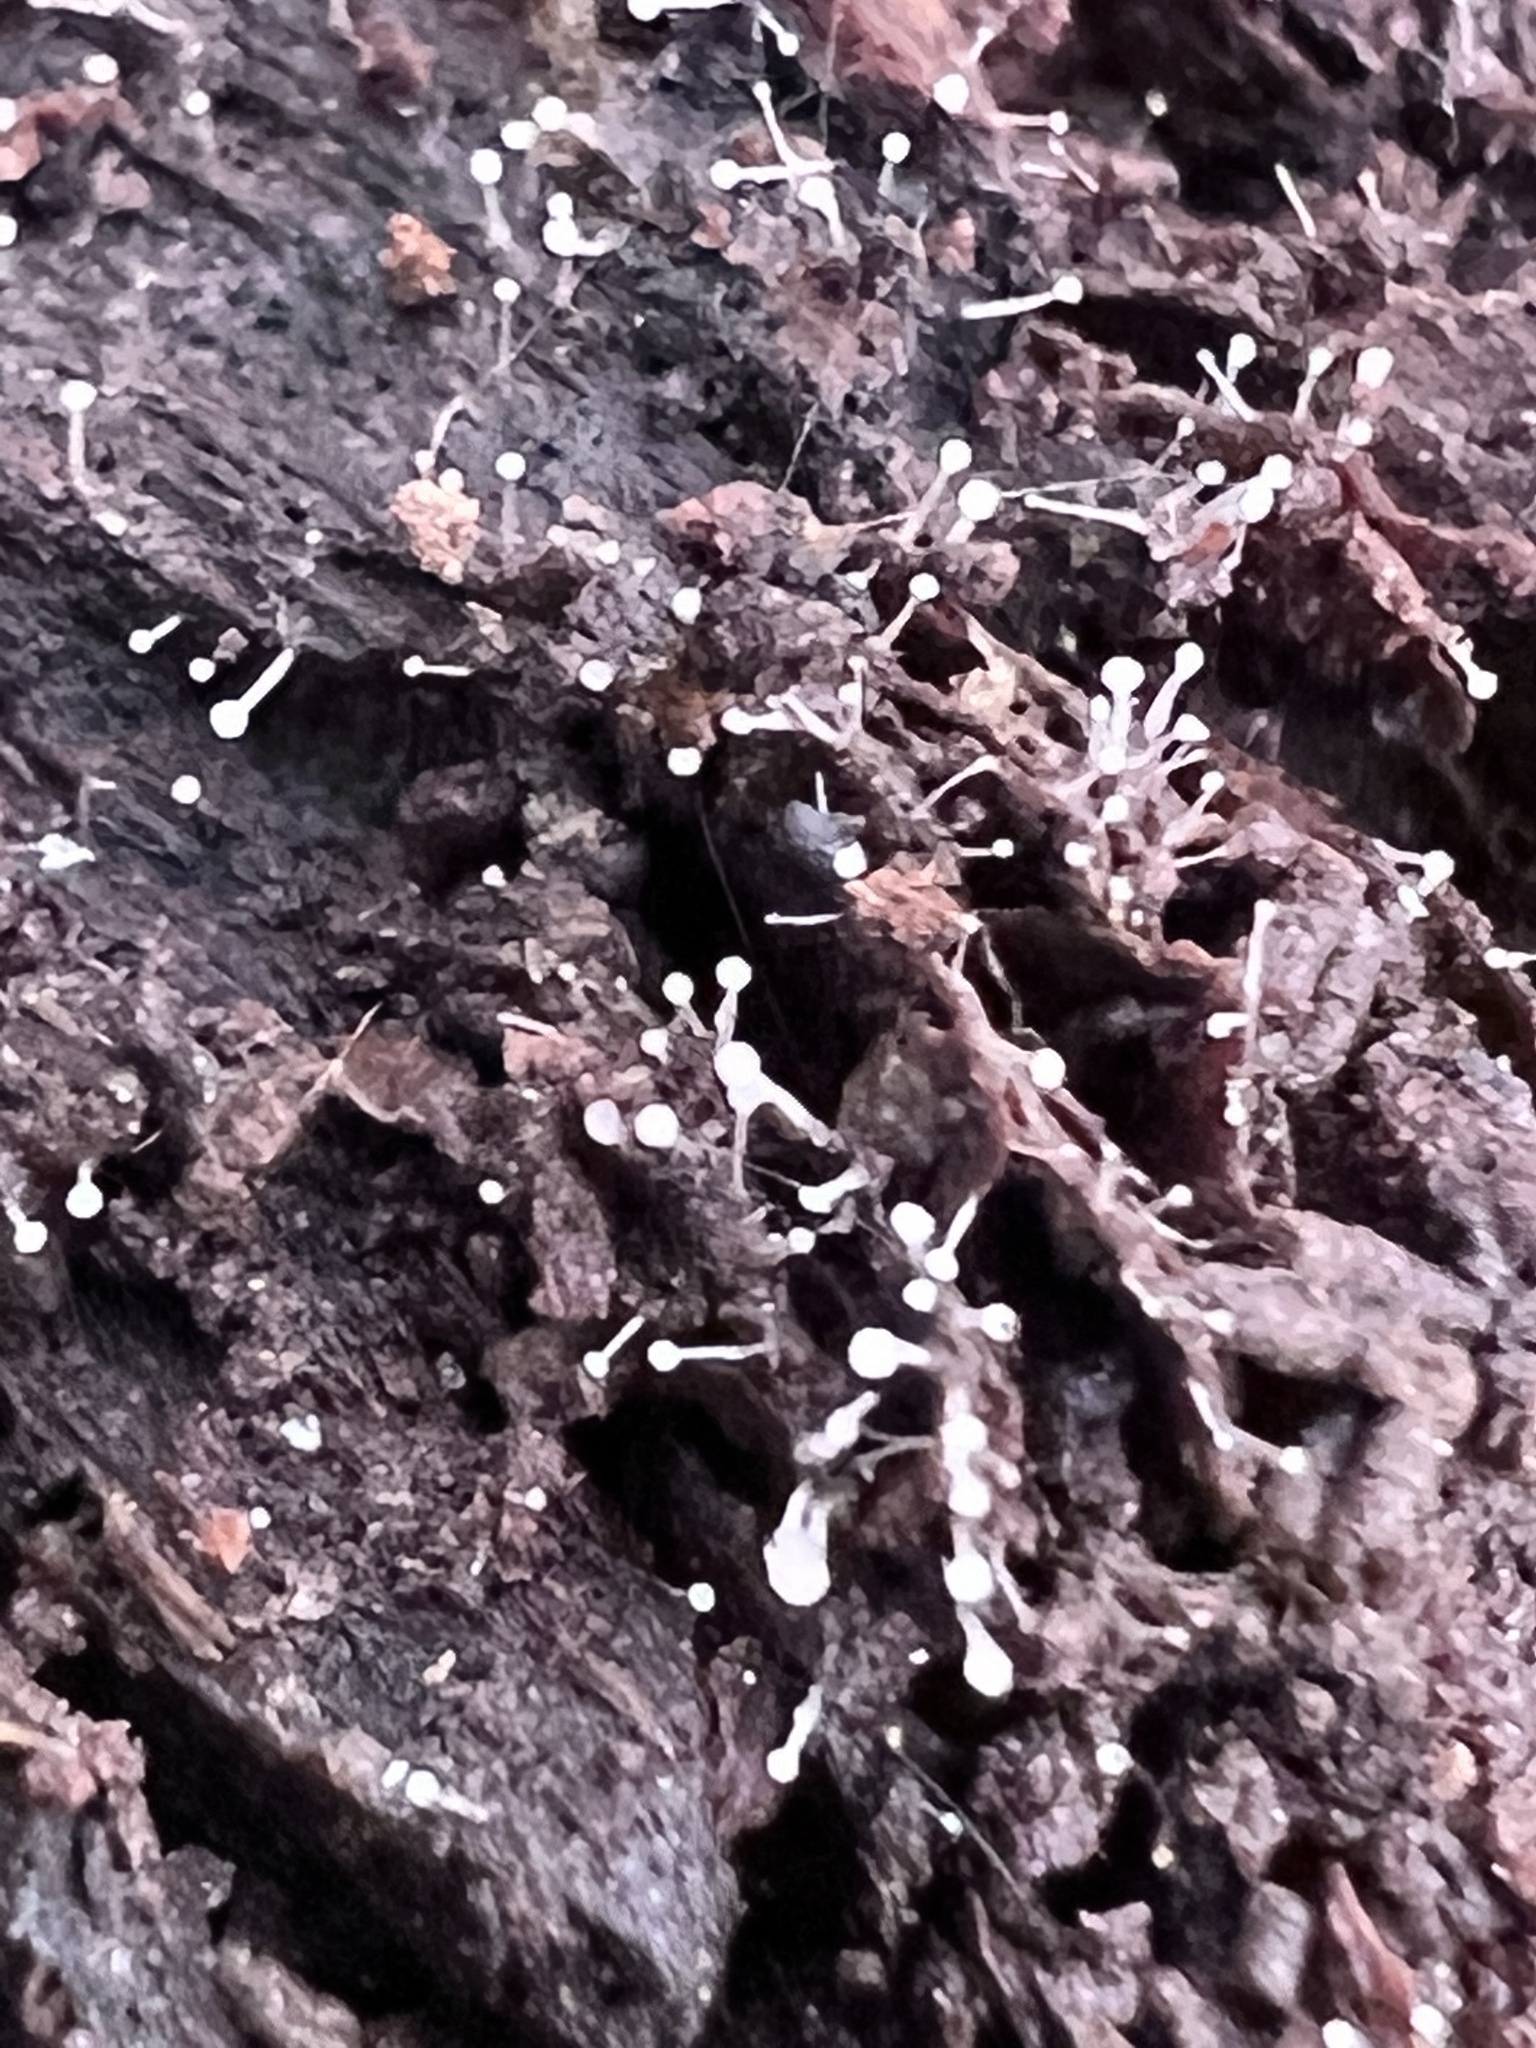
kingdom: Fungi
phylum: Ascomycota
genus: Stachycoremium
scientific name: Stachycoremium parvulum
